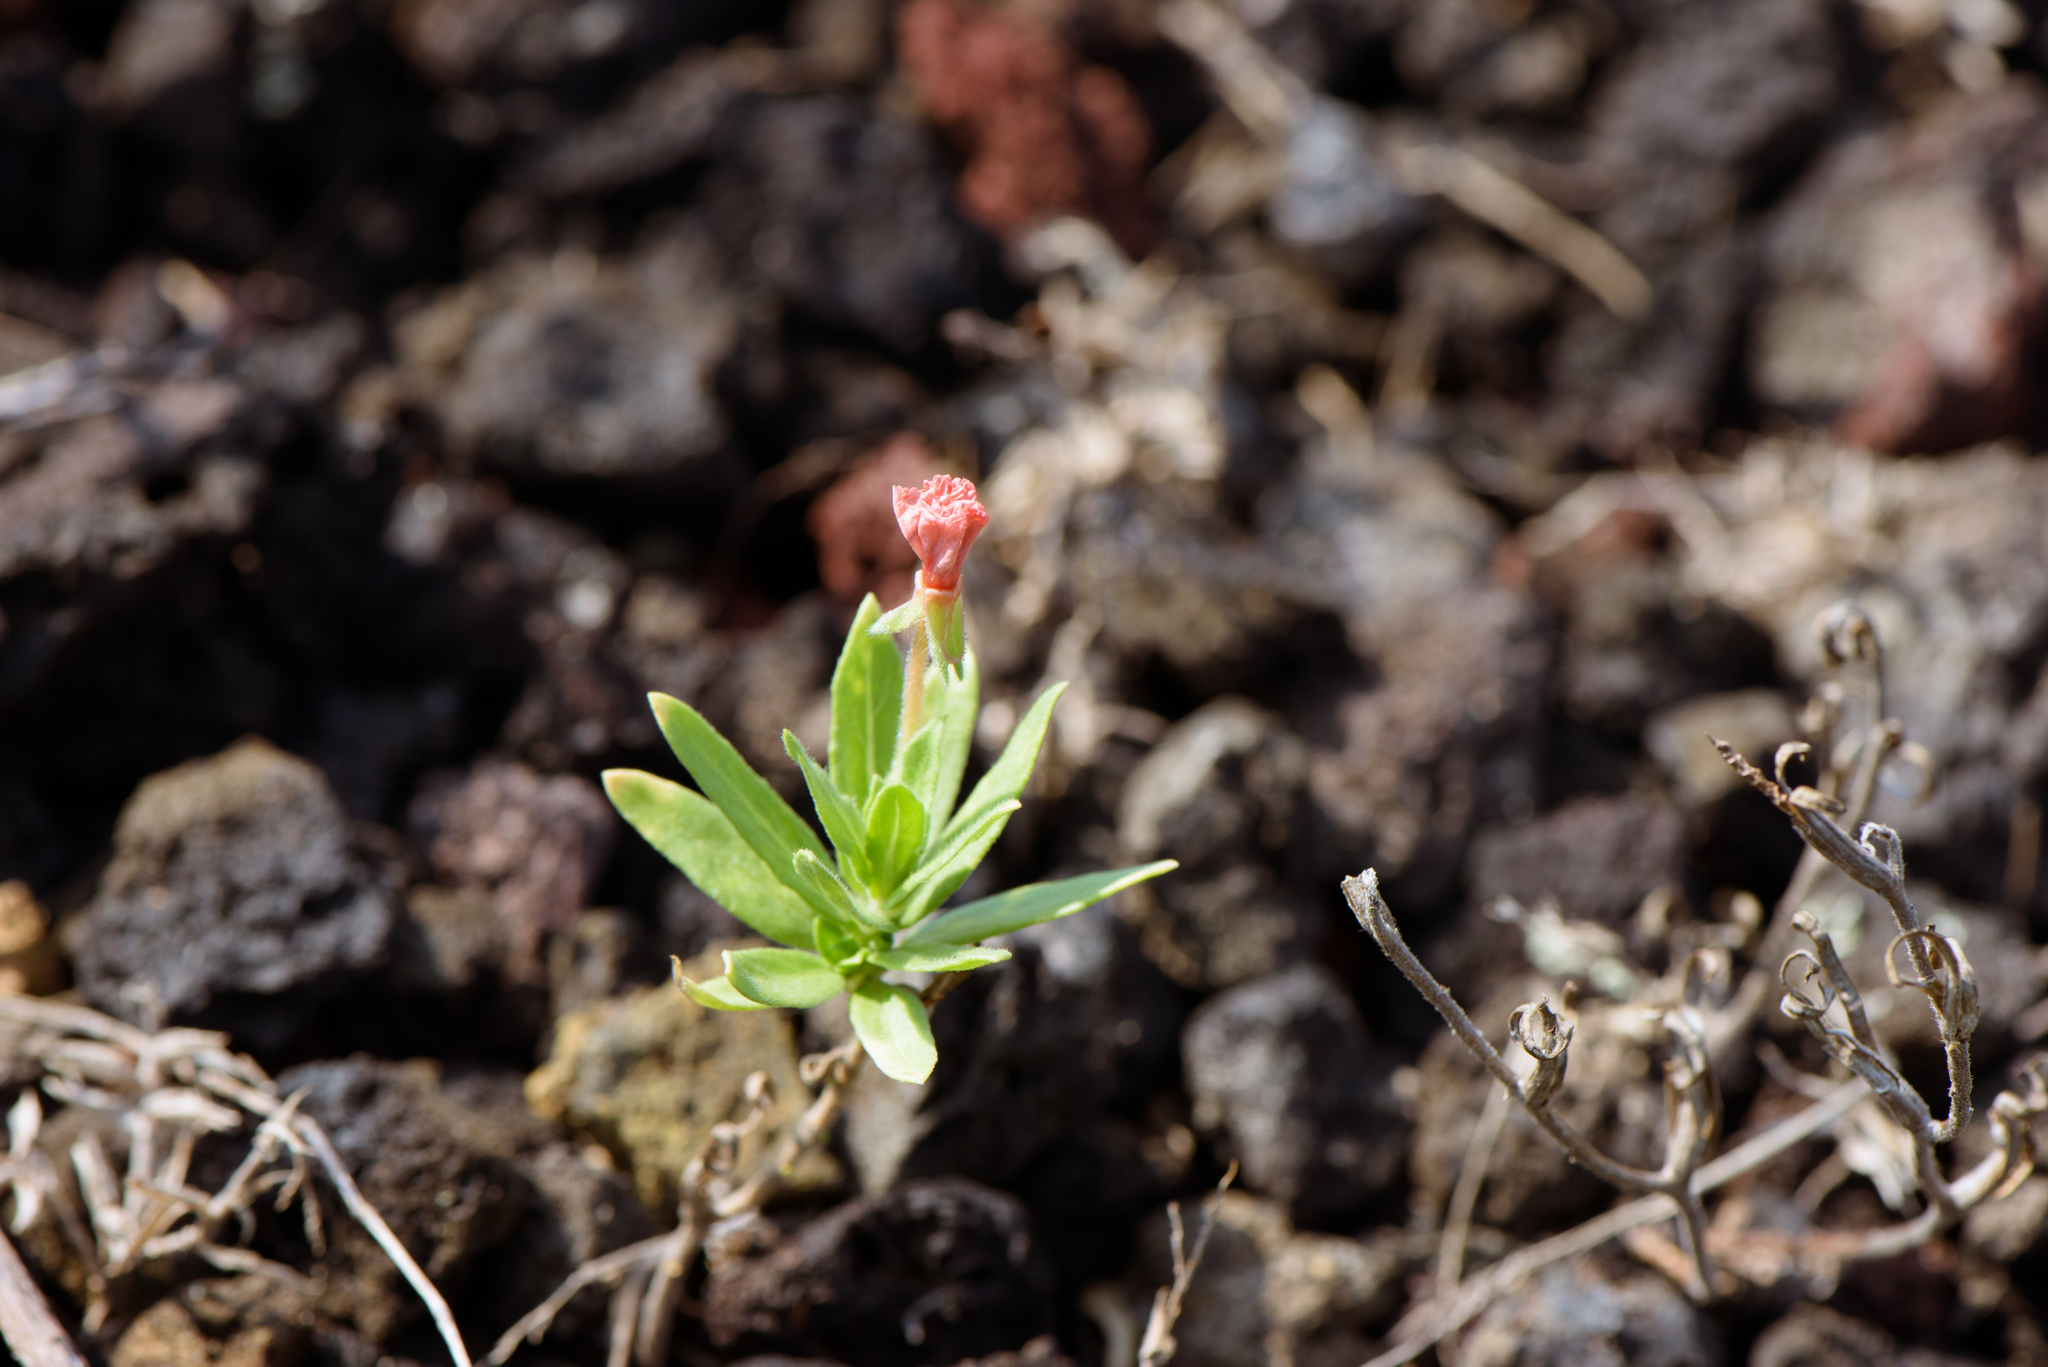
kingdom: Plantae
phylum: Tracheophyta
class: Magnoliopsida
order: Myrtales
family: Onagraceae
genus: Oenothera
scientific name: Oenothera laciniata
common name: Cut-leaved evening-primrose
